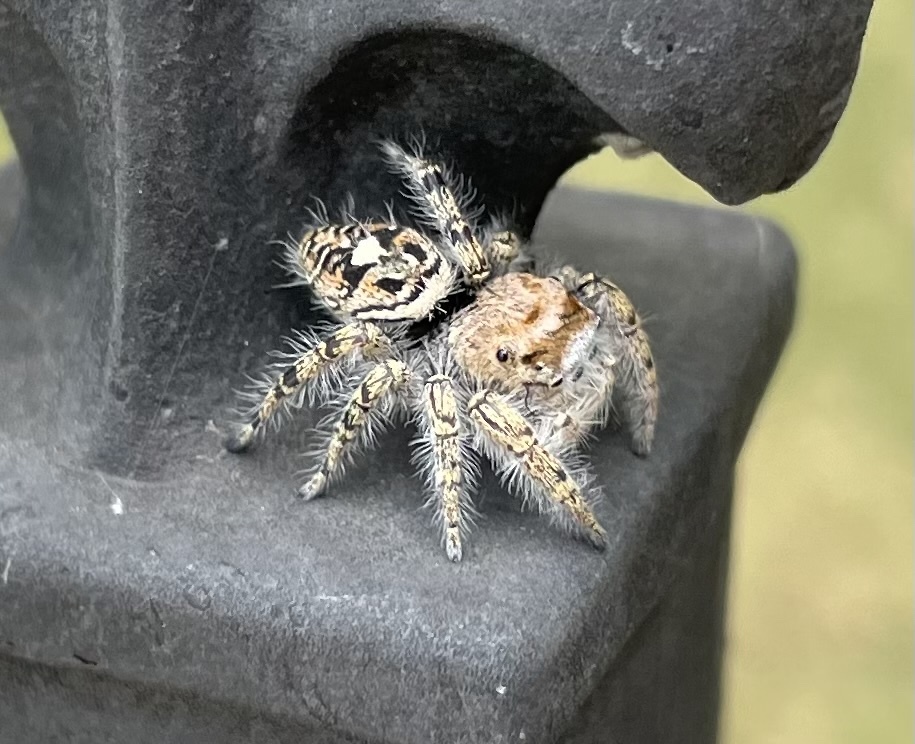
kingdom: Animalia
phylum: Arthropoda
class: Arachnida
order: Araneae
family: Salticidae
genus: Phidippus
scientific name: Phidippus carolinensis
